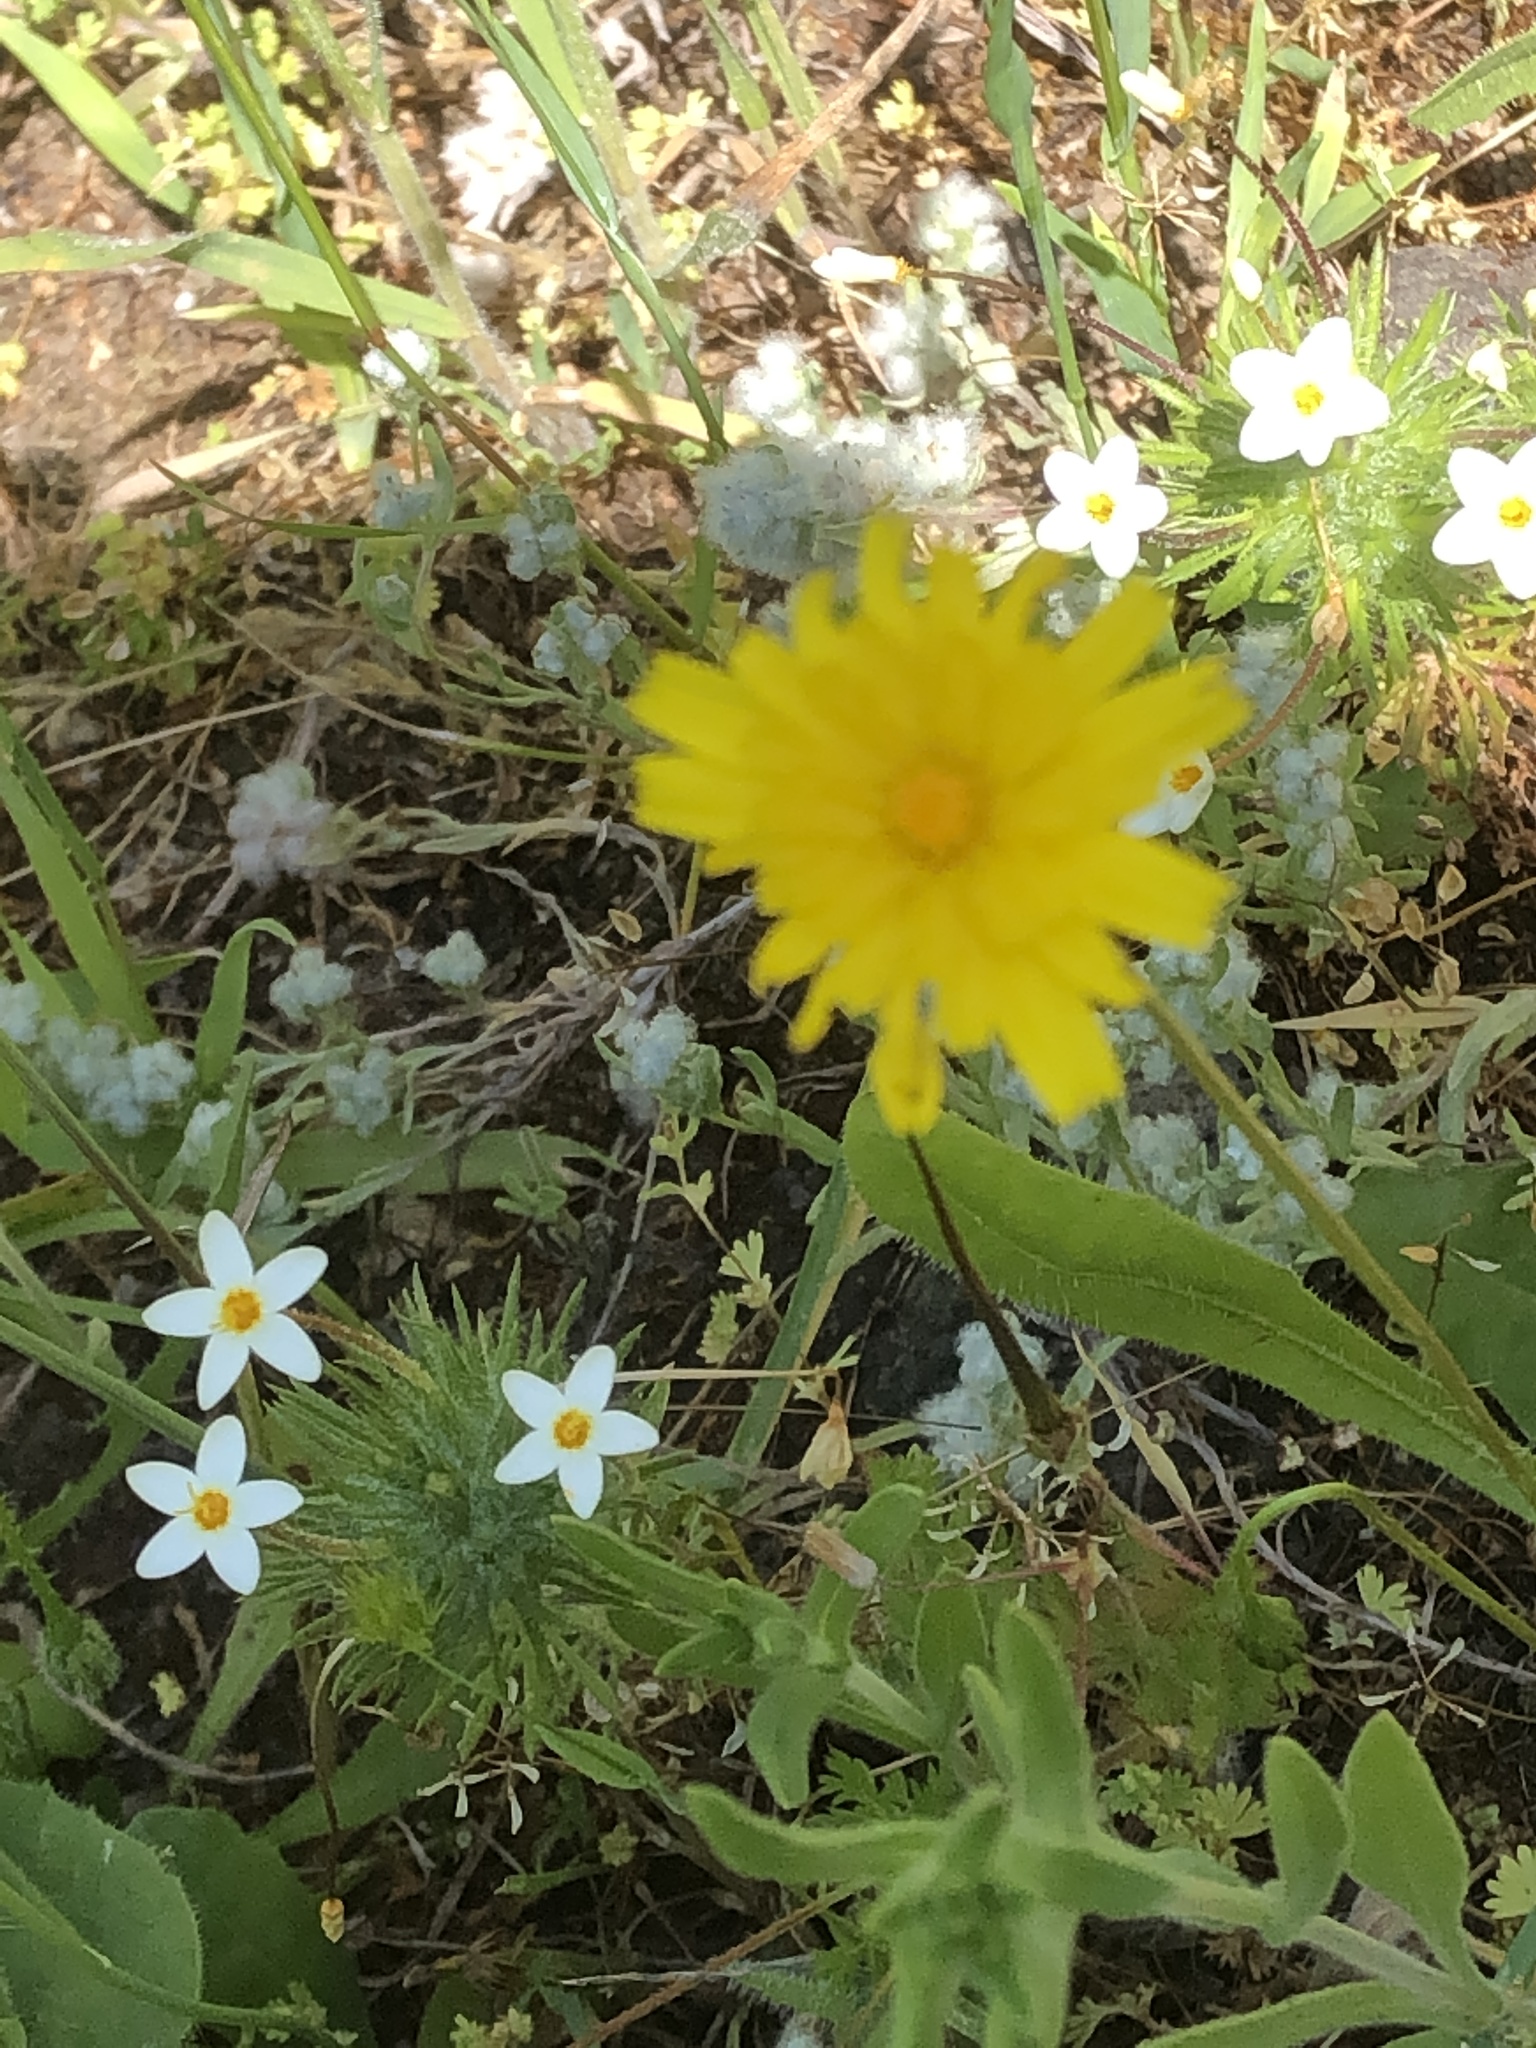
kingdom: Plantae
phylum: Tracheophyta
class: Magnoliopsida
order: Ericales
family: Polemoniaceae
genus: Leptosiphon
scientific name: Leptosiphon parviflorus
